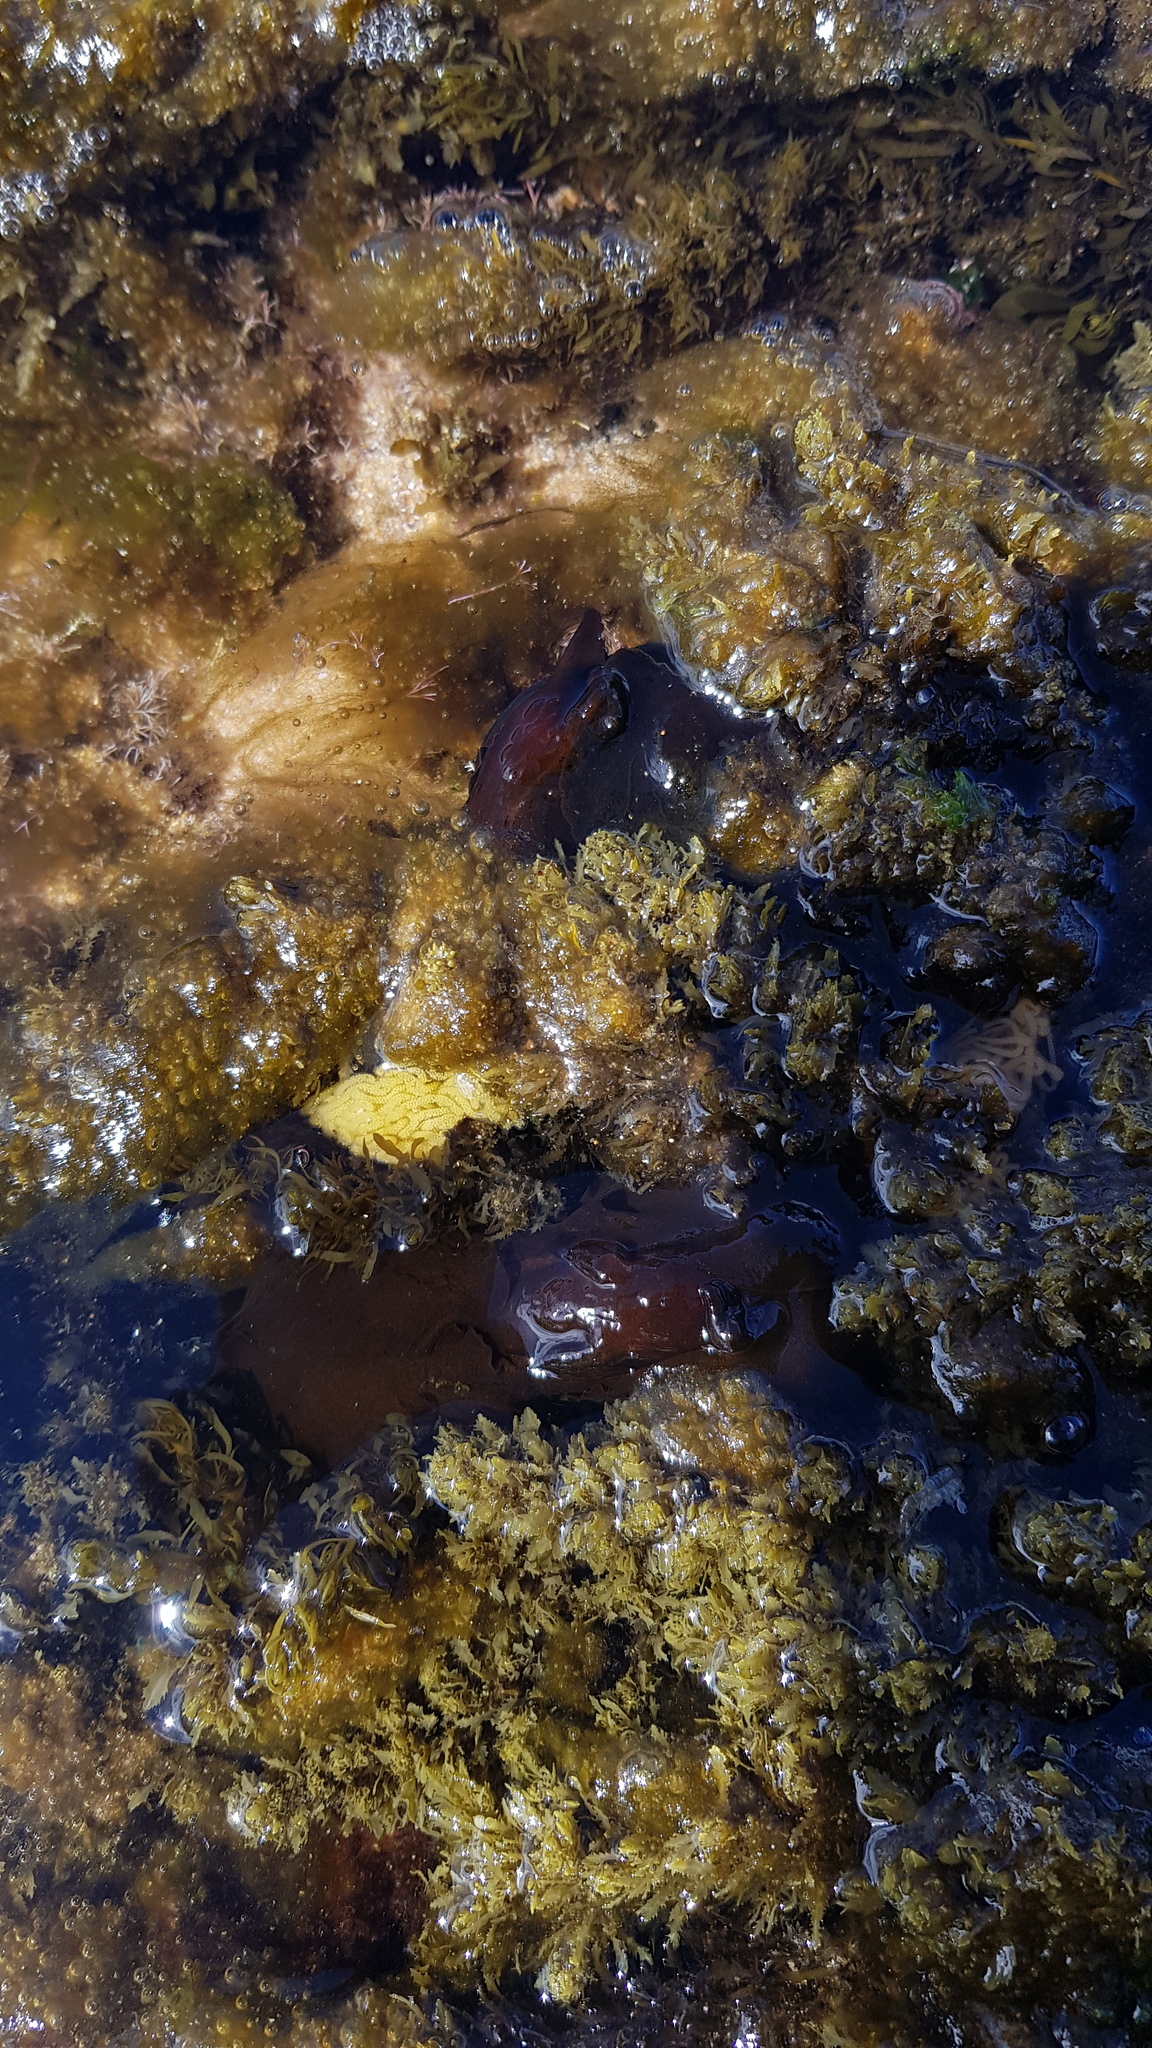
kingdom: Animalia
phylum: Mollusca
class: Gastropoda
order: Aplysiida
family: Aplysiidae
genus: Aplysia
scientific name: Aplysia juliana
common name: Walking sea hare
